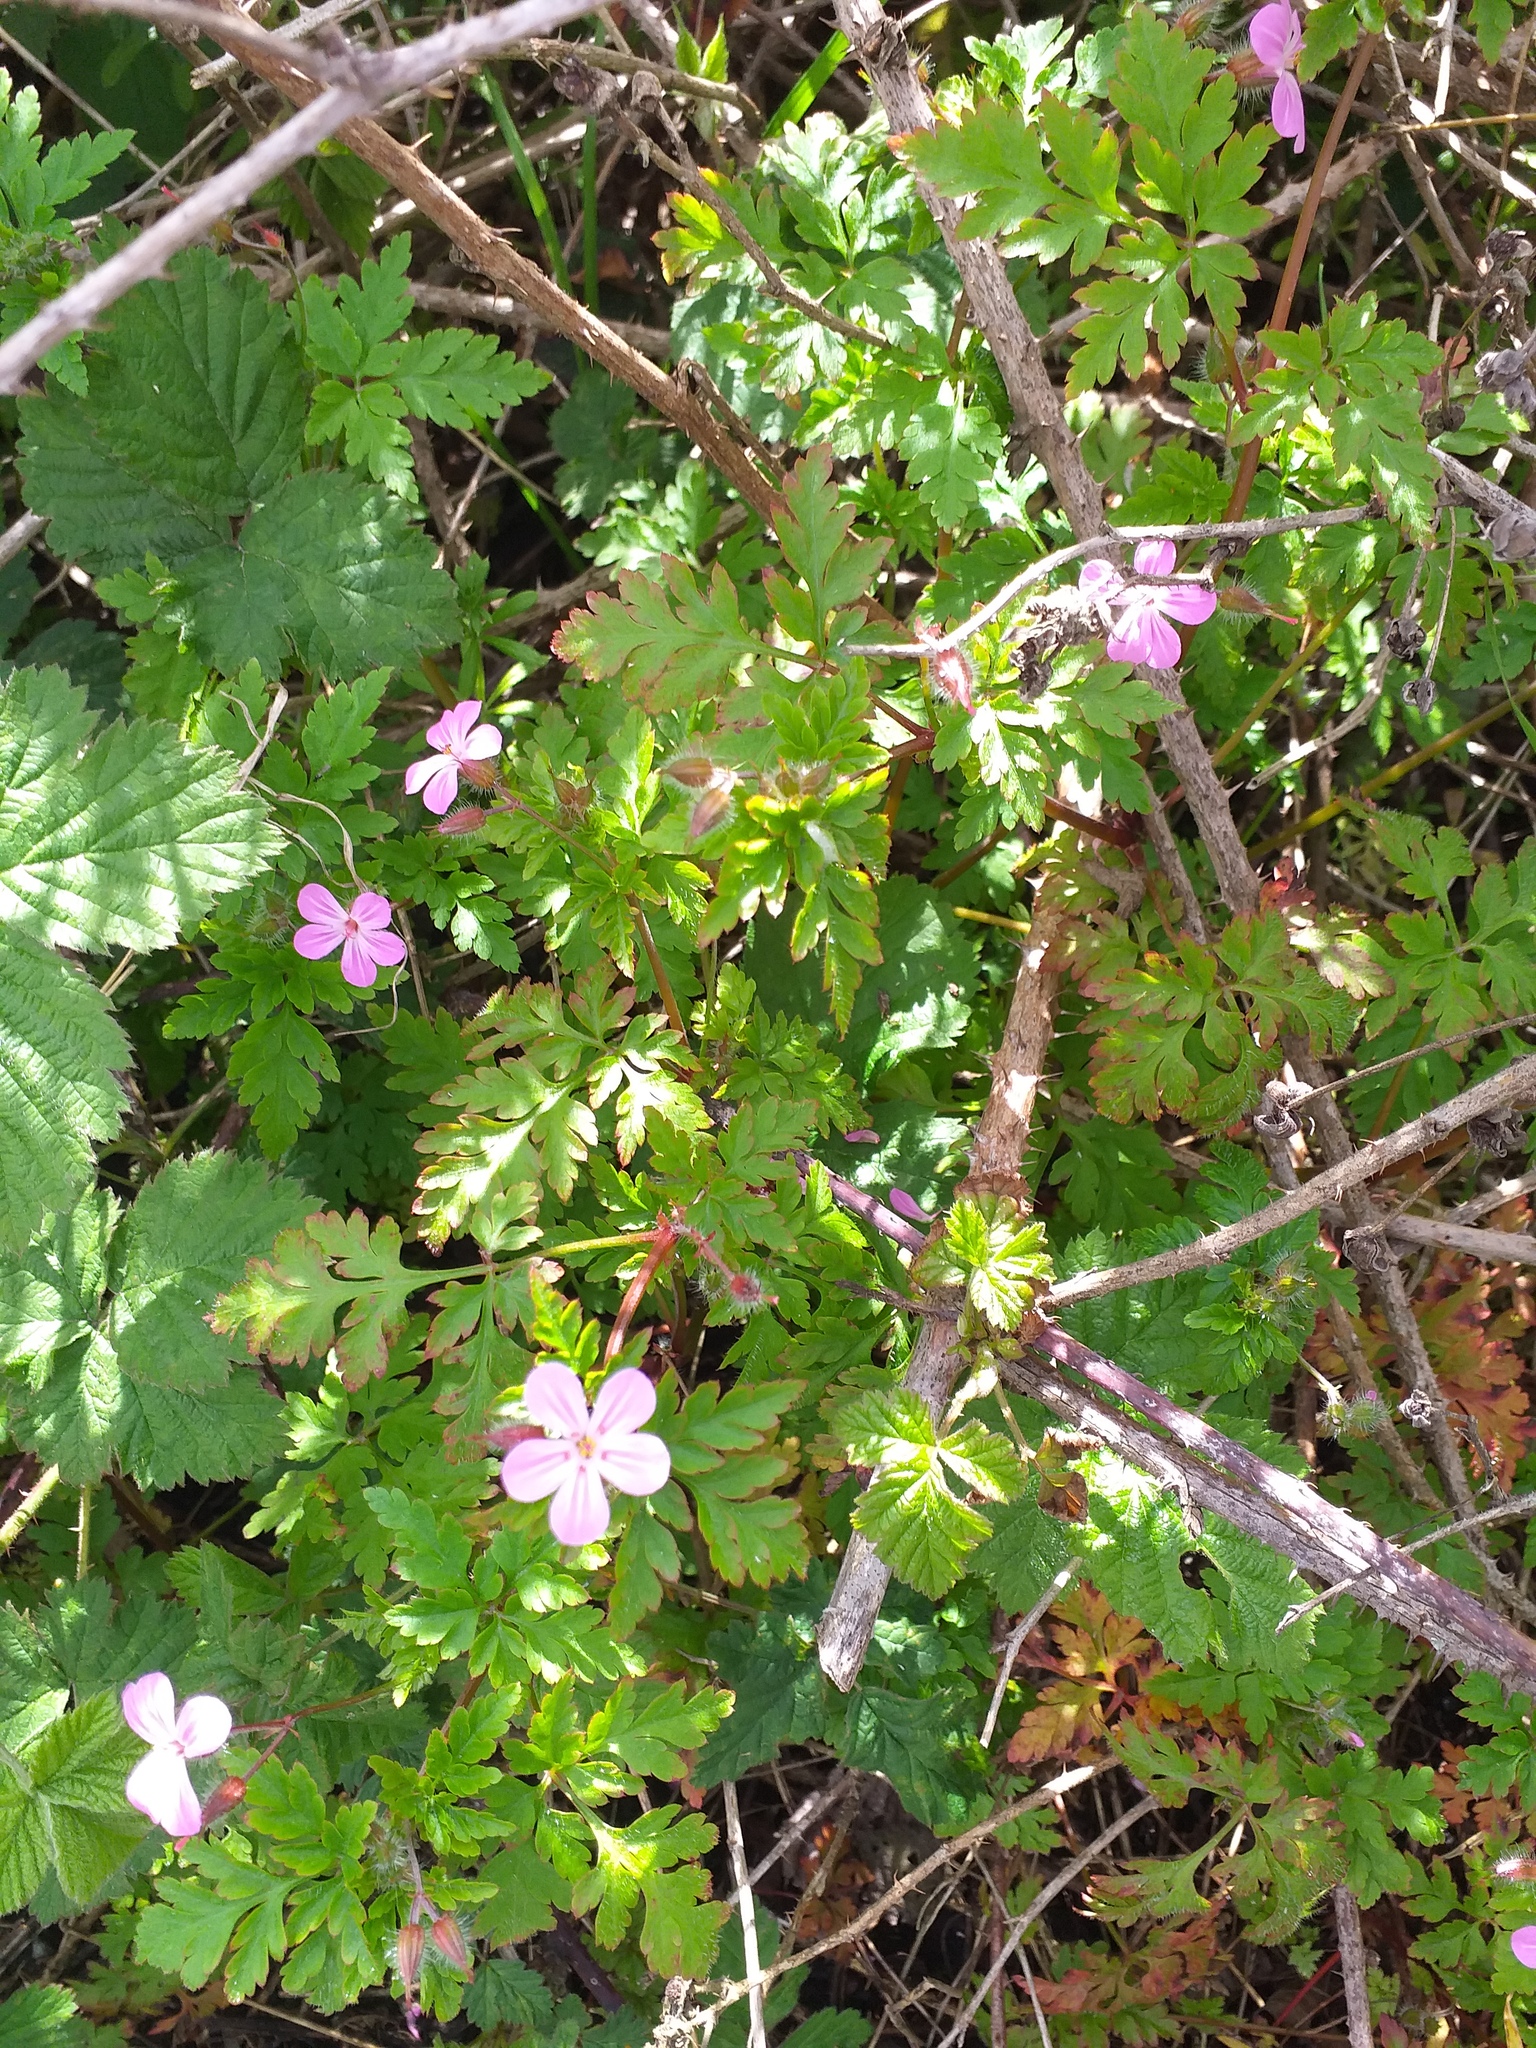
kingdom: Plantae
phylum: Tracheophyta
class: Magnoliopsida
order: Geraniales
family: Geraniaceae
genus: Geranium
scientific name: Geranium robertianum
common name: Herb-robert
